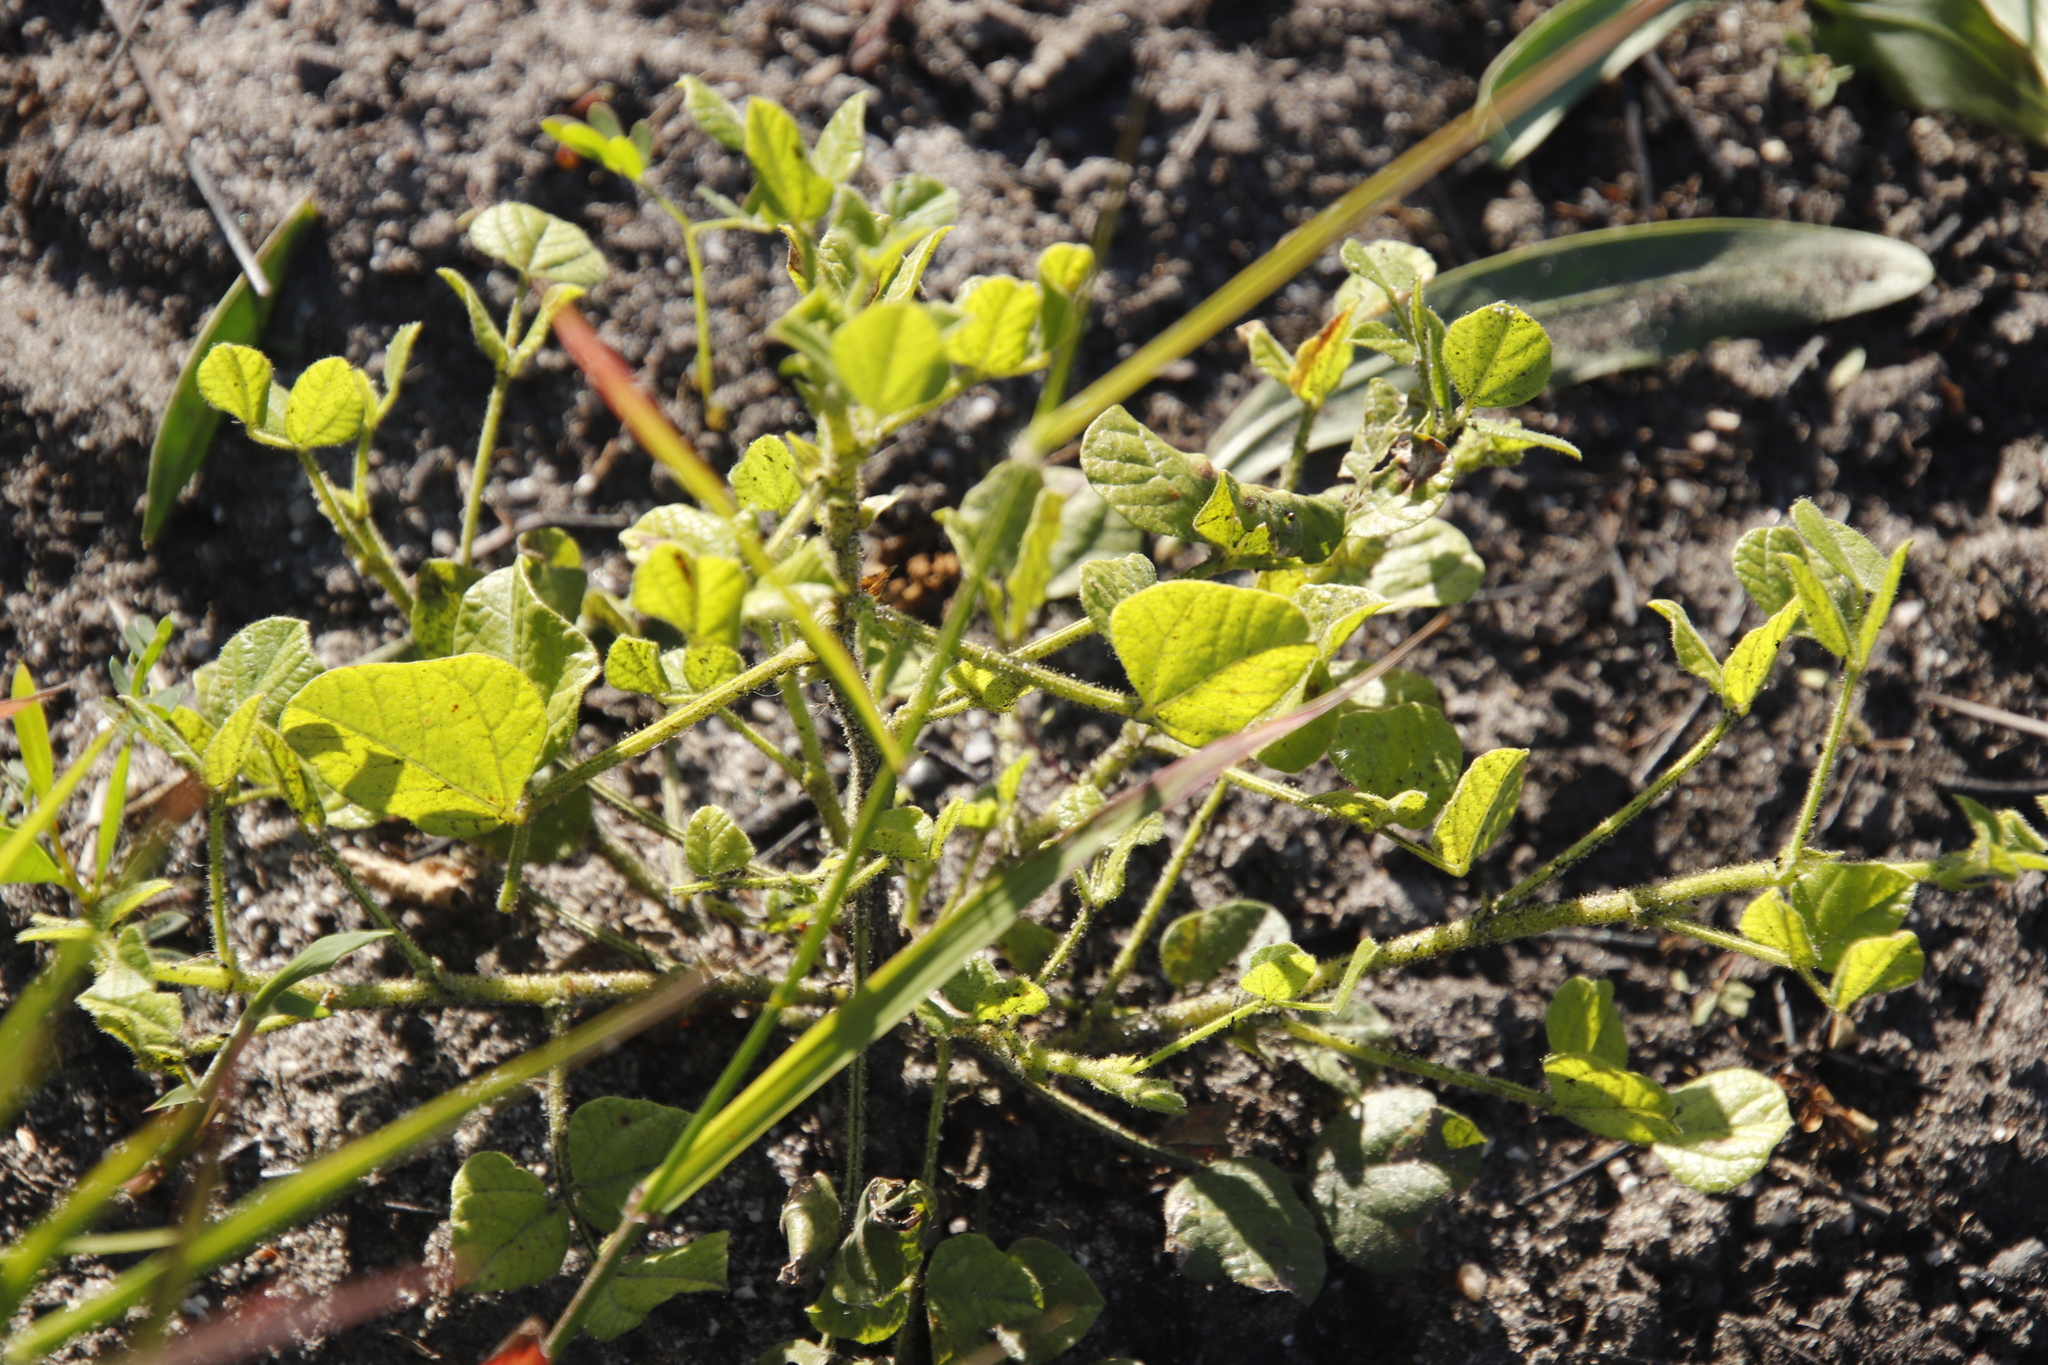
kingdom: Plantae
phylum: Tracheophyta
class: Magnoliopsida
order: Fabales
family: Fabaceae
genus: Bolusafra
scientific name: Bolusafra bituminosa
